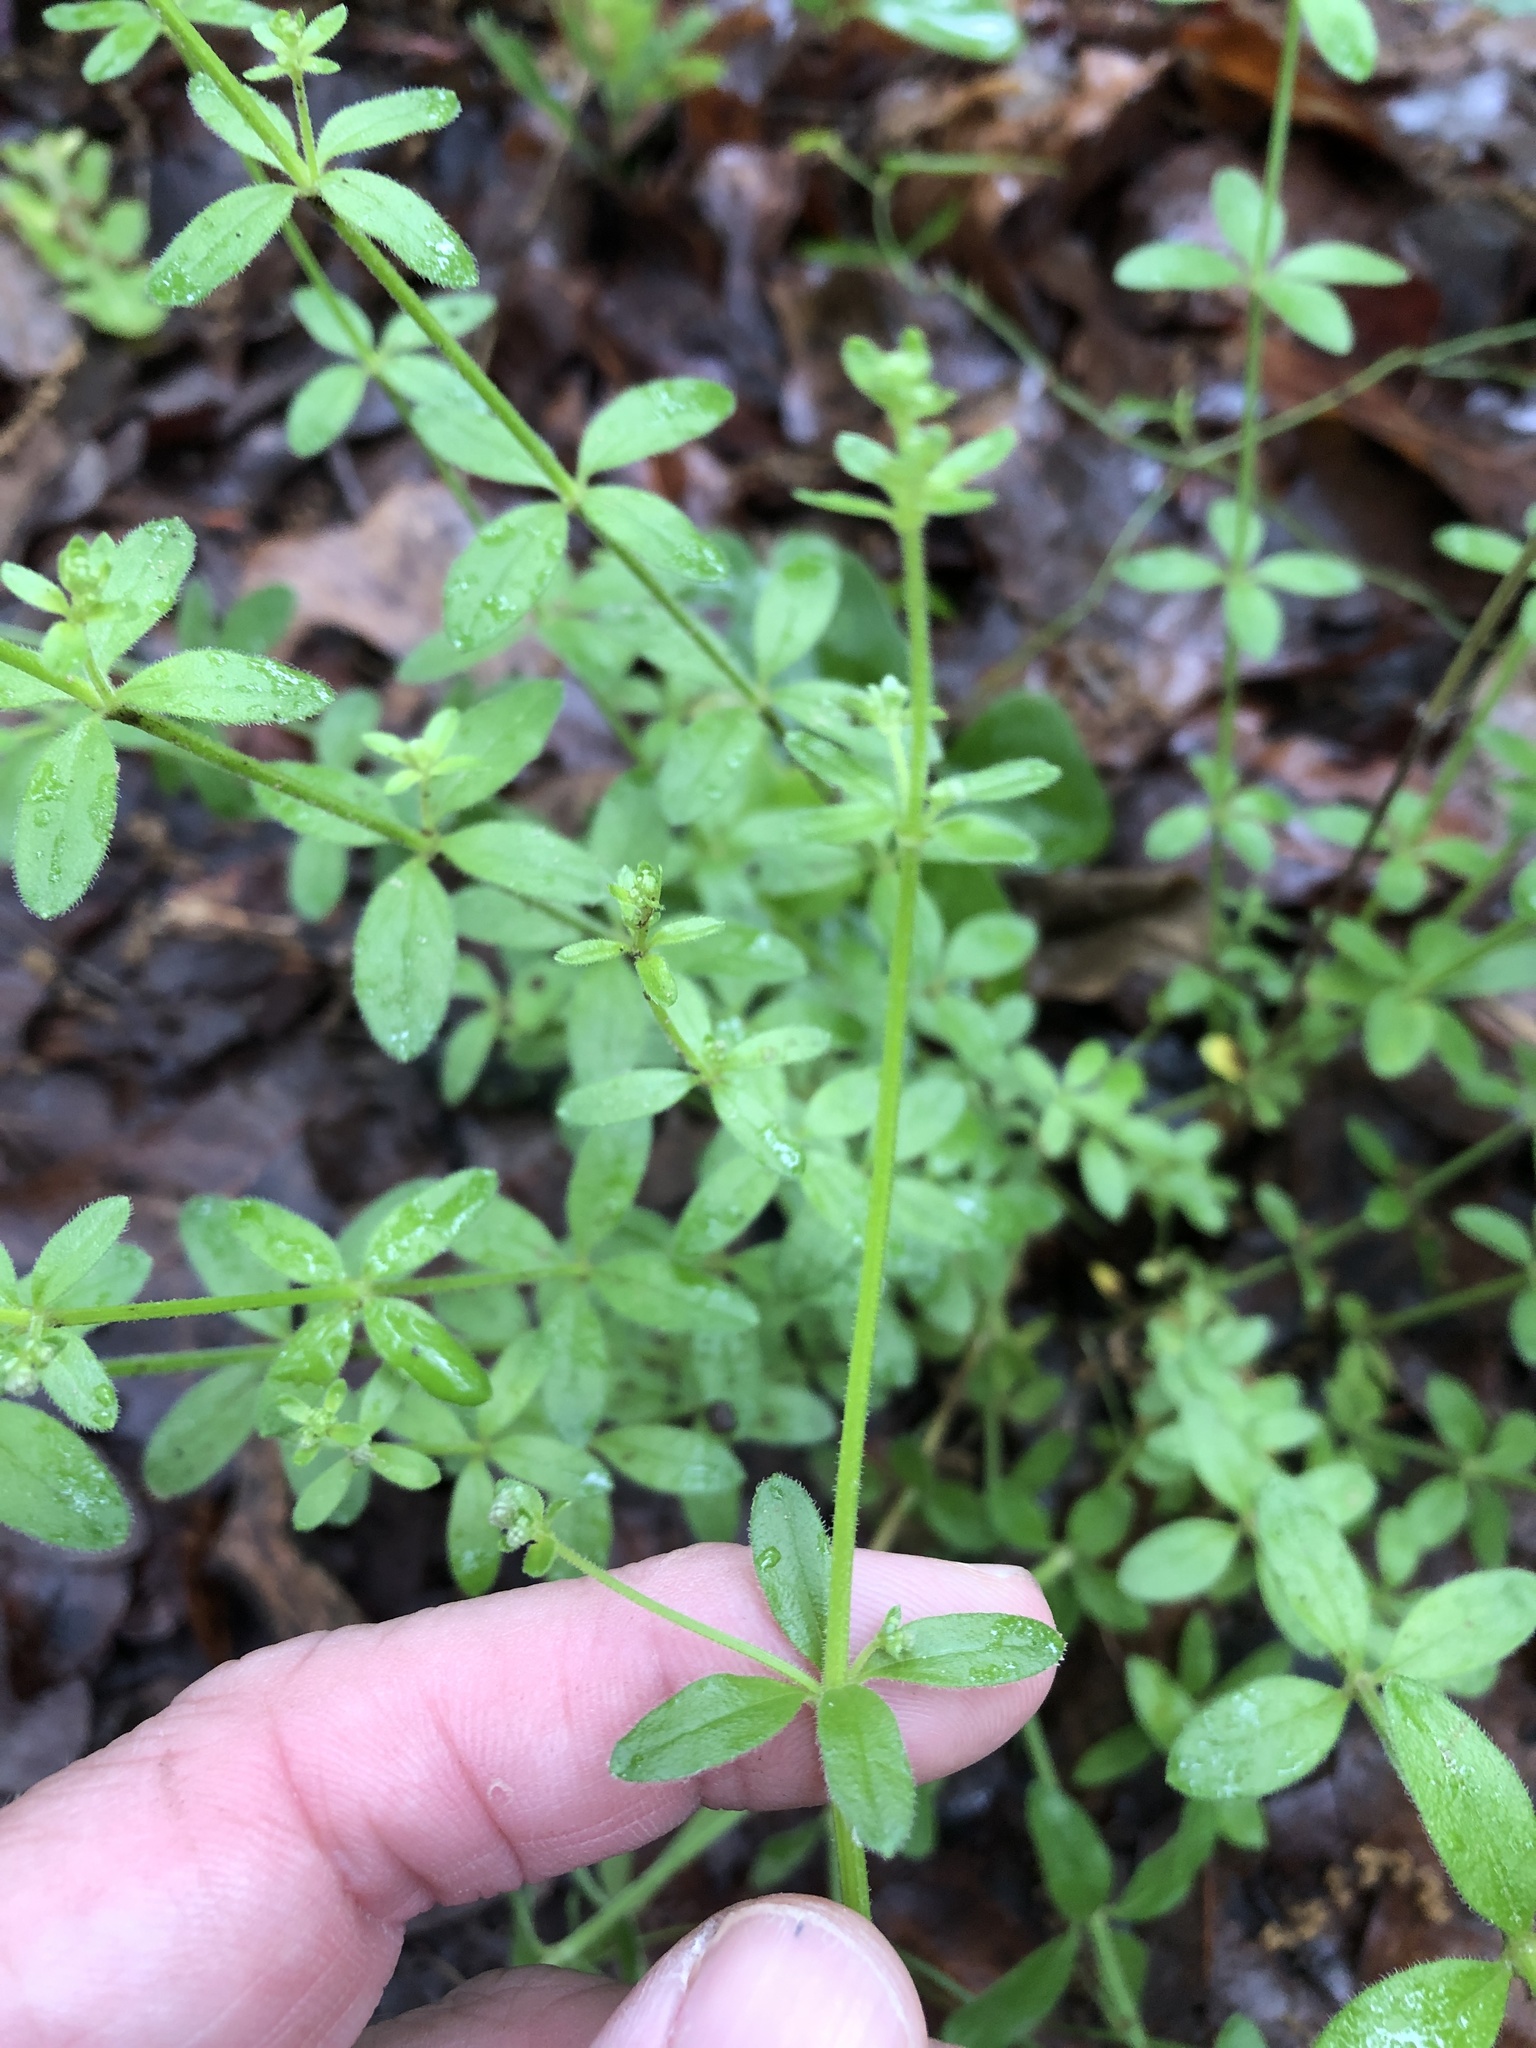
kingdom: Plantae
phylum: Tracheophyta
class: Magnoliopsida
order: Gentianales
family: Rubiaceae
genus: Galium
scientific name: Galium circaezans
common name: Forest bedstraw
